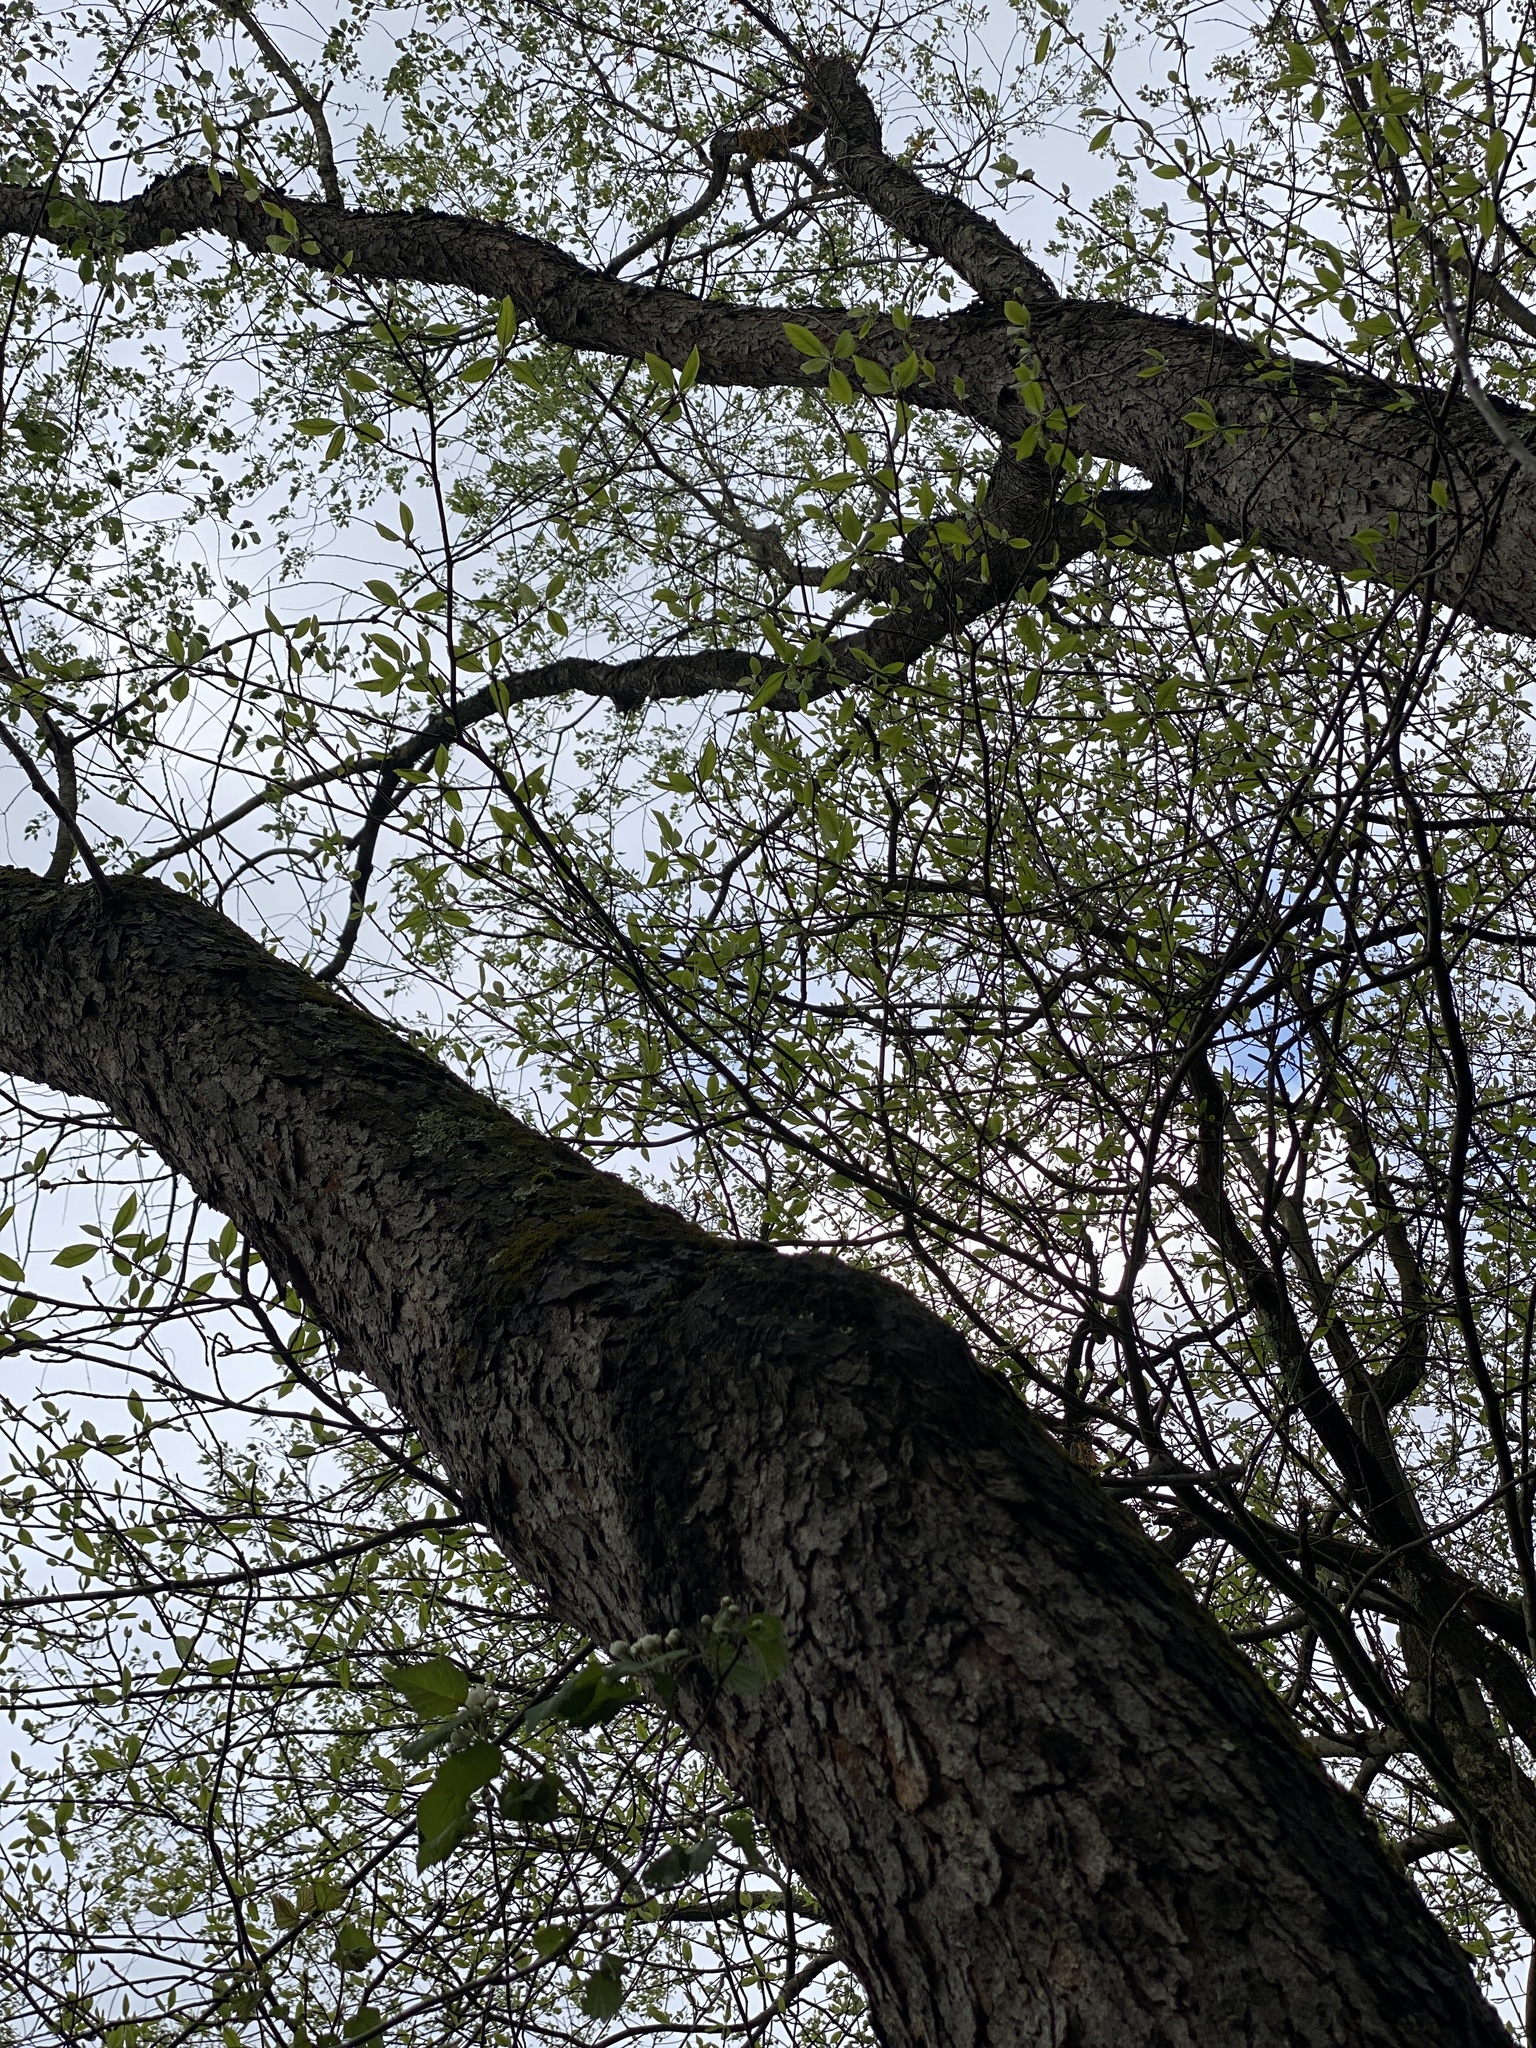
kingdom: Plantae
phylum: Tracheophyta
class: Magnoliopsida
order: Rosales
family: Rosaceae
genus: Prunus
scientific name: Prunus serotina
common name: Black cherry
